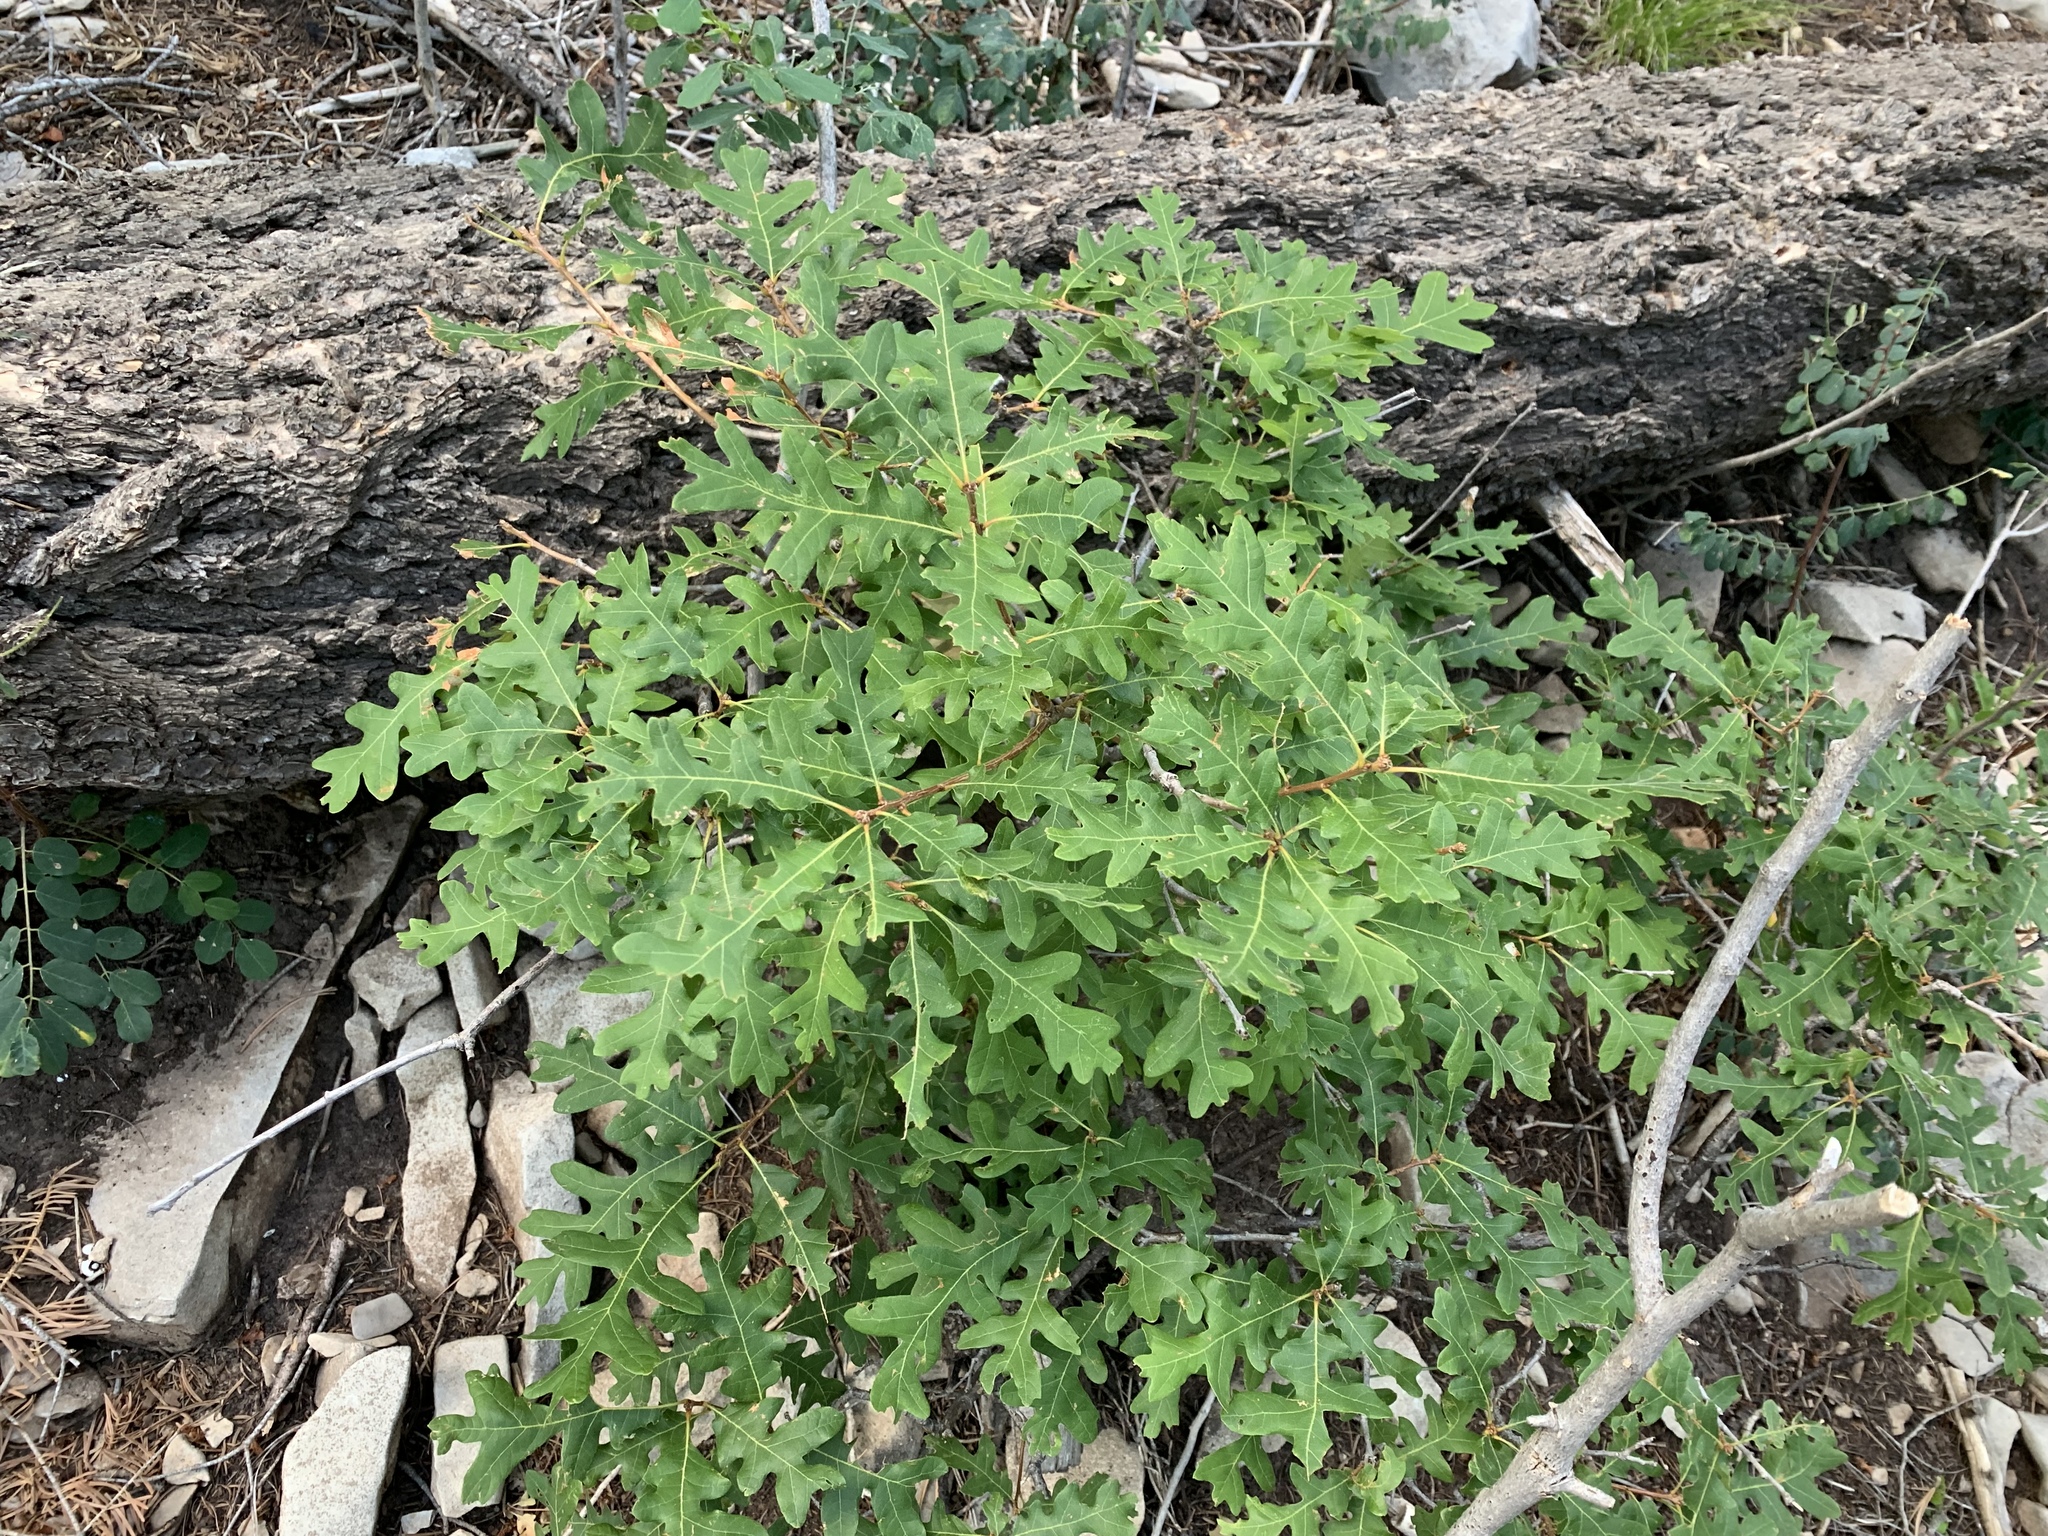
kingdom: Plantae
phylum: Tracheophyta
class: Magnoliopsida
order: Fagales
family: Fagaceae
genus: Quercus
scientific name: Quercus gambelii
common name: Gambel oak
